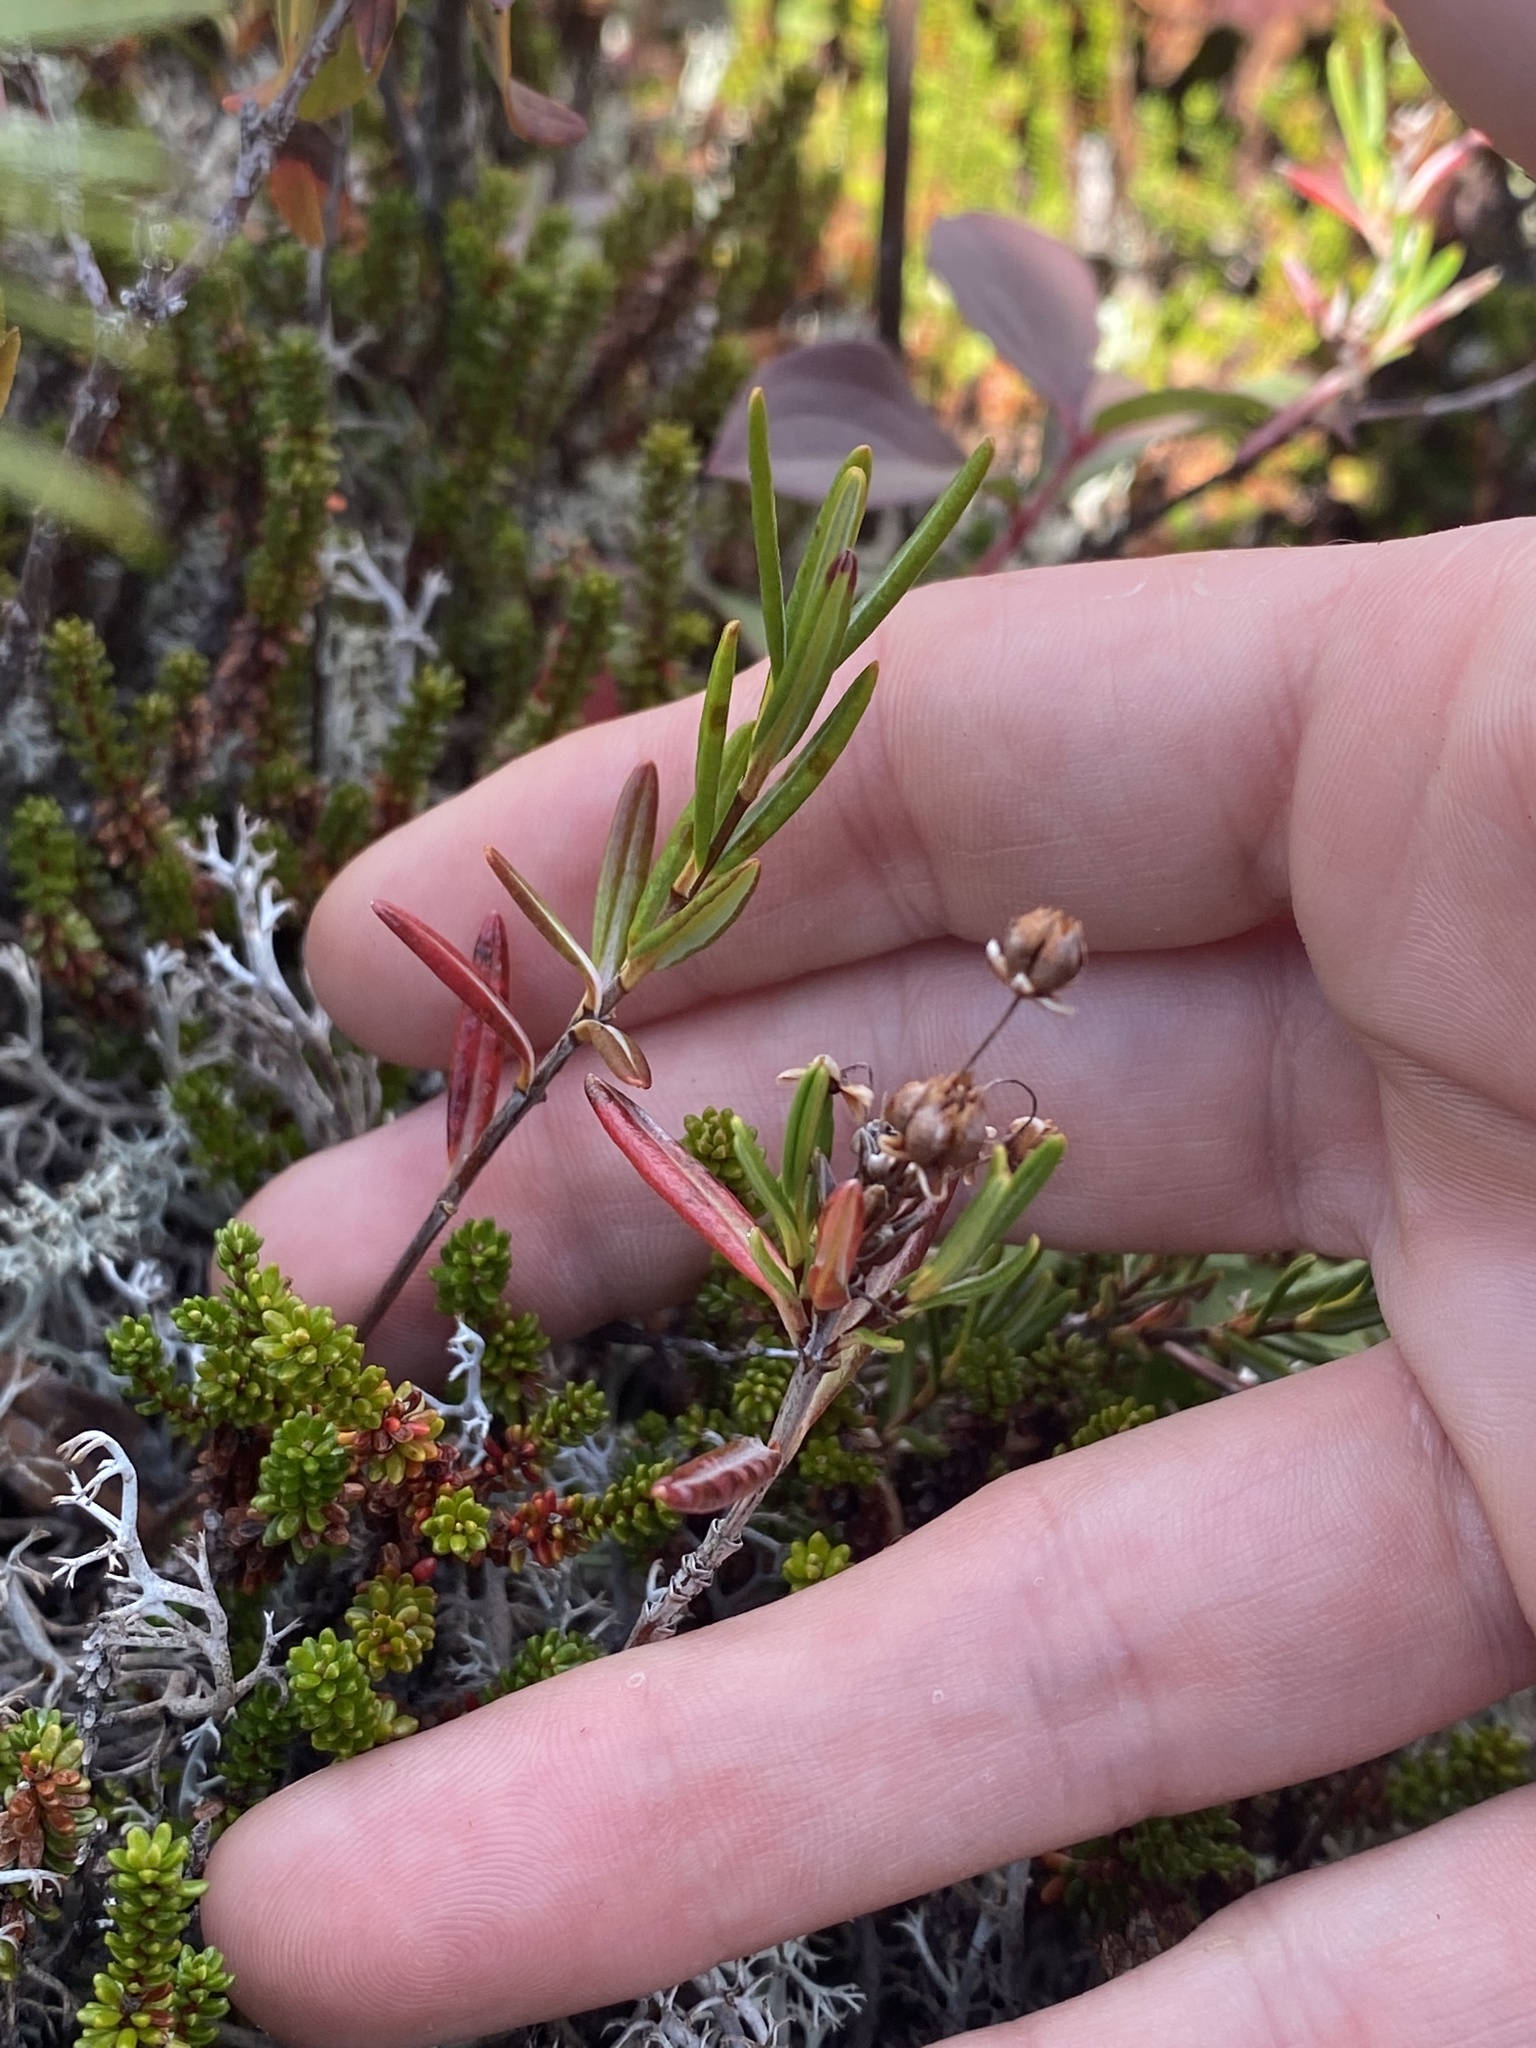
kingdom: Plantae
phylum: Tracheophyta
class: Magnoliopsida
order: Ericales
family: Ericaceae
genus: Andromeda
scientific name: Andromeda polifolia
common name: Bog-rosemary
